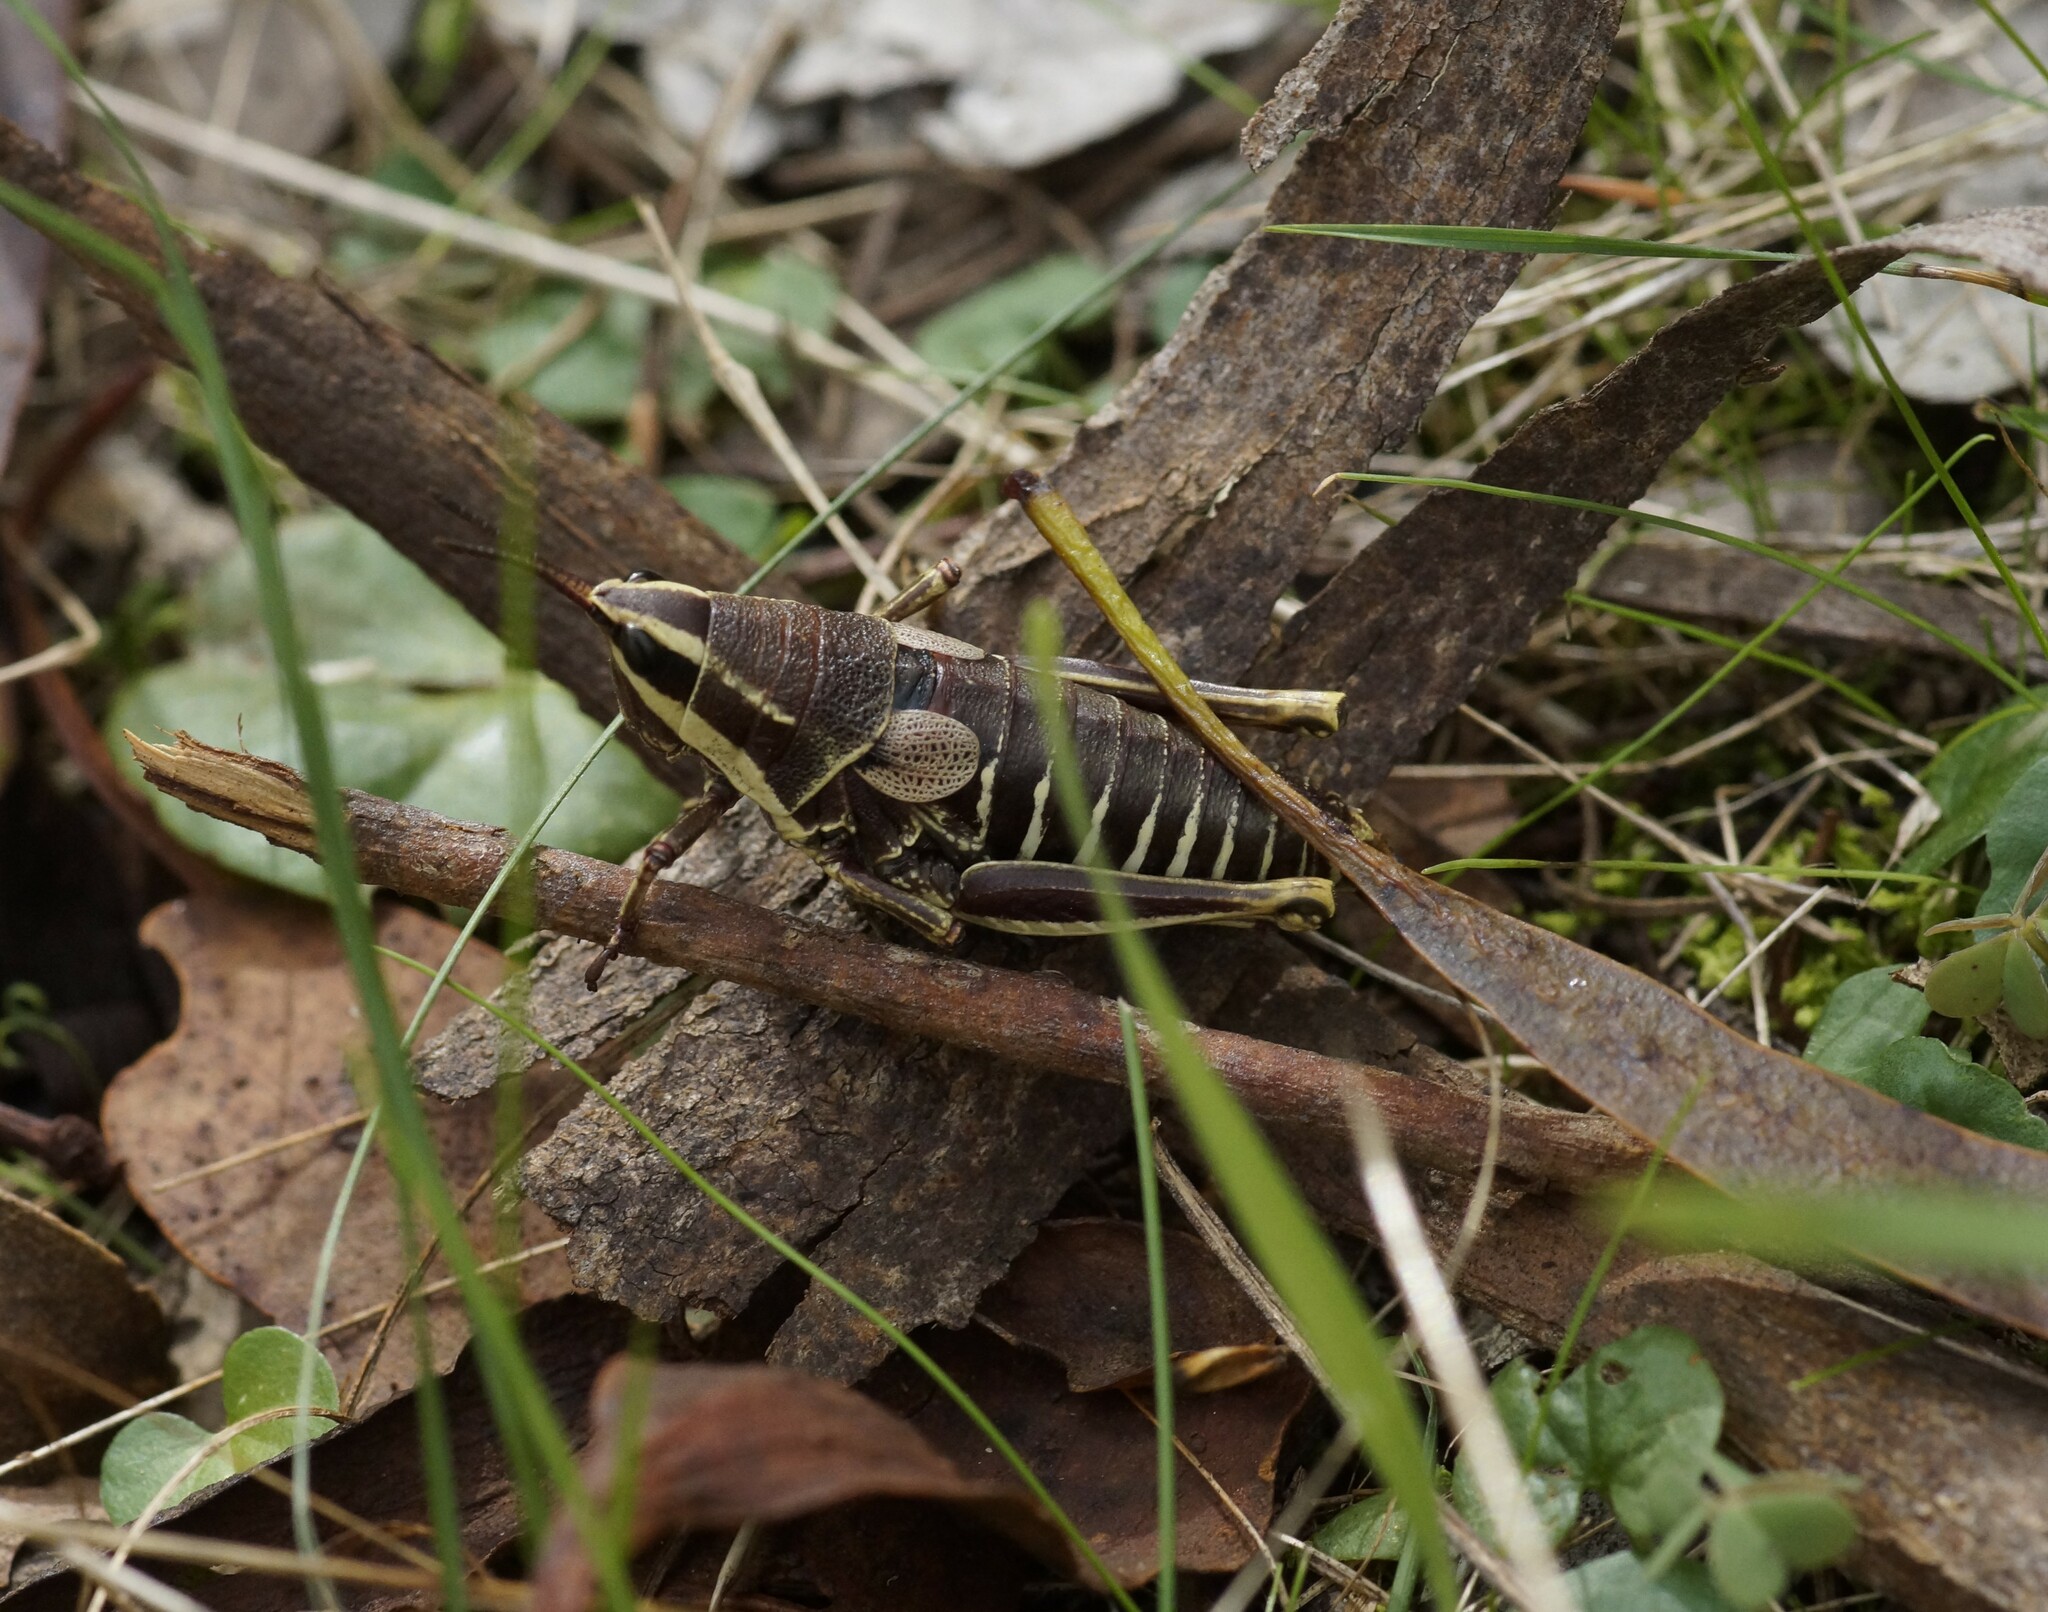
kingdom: Animalia
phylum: Arthropoda
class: Insecta
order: Orthoptera
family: Pyrgomorphidae
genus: Monistria
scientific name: Monistria discrepans
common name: Common pyrgomorph
